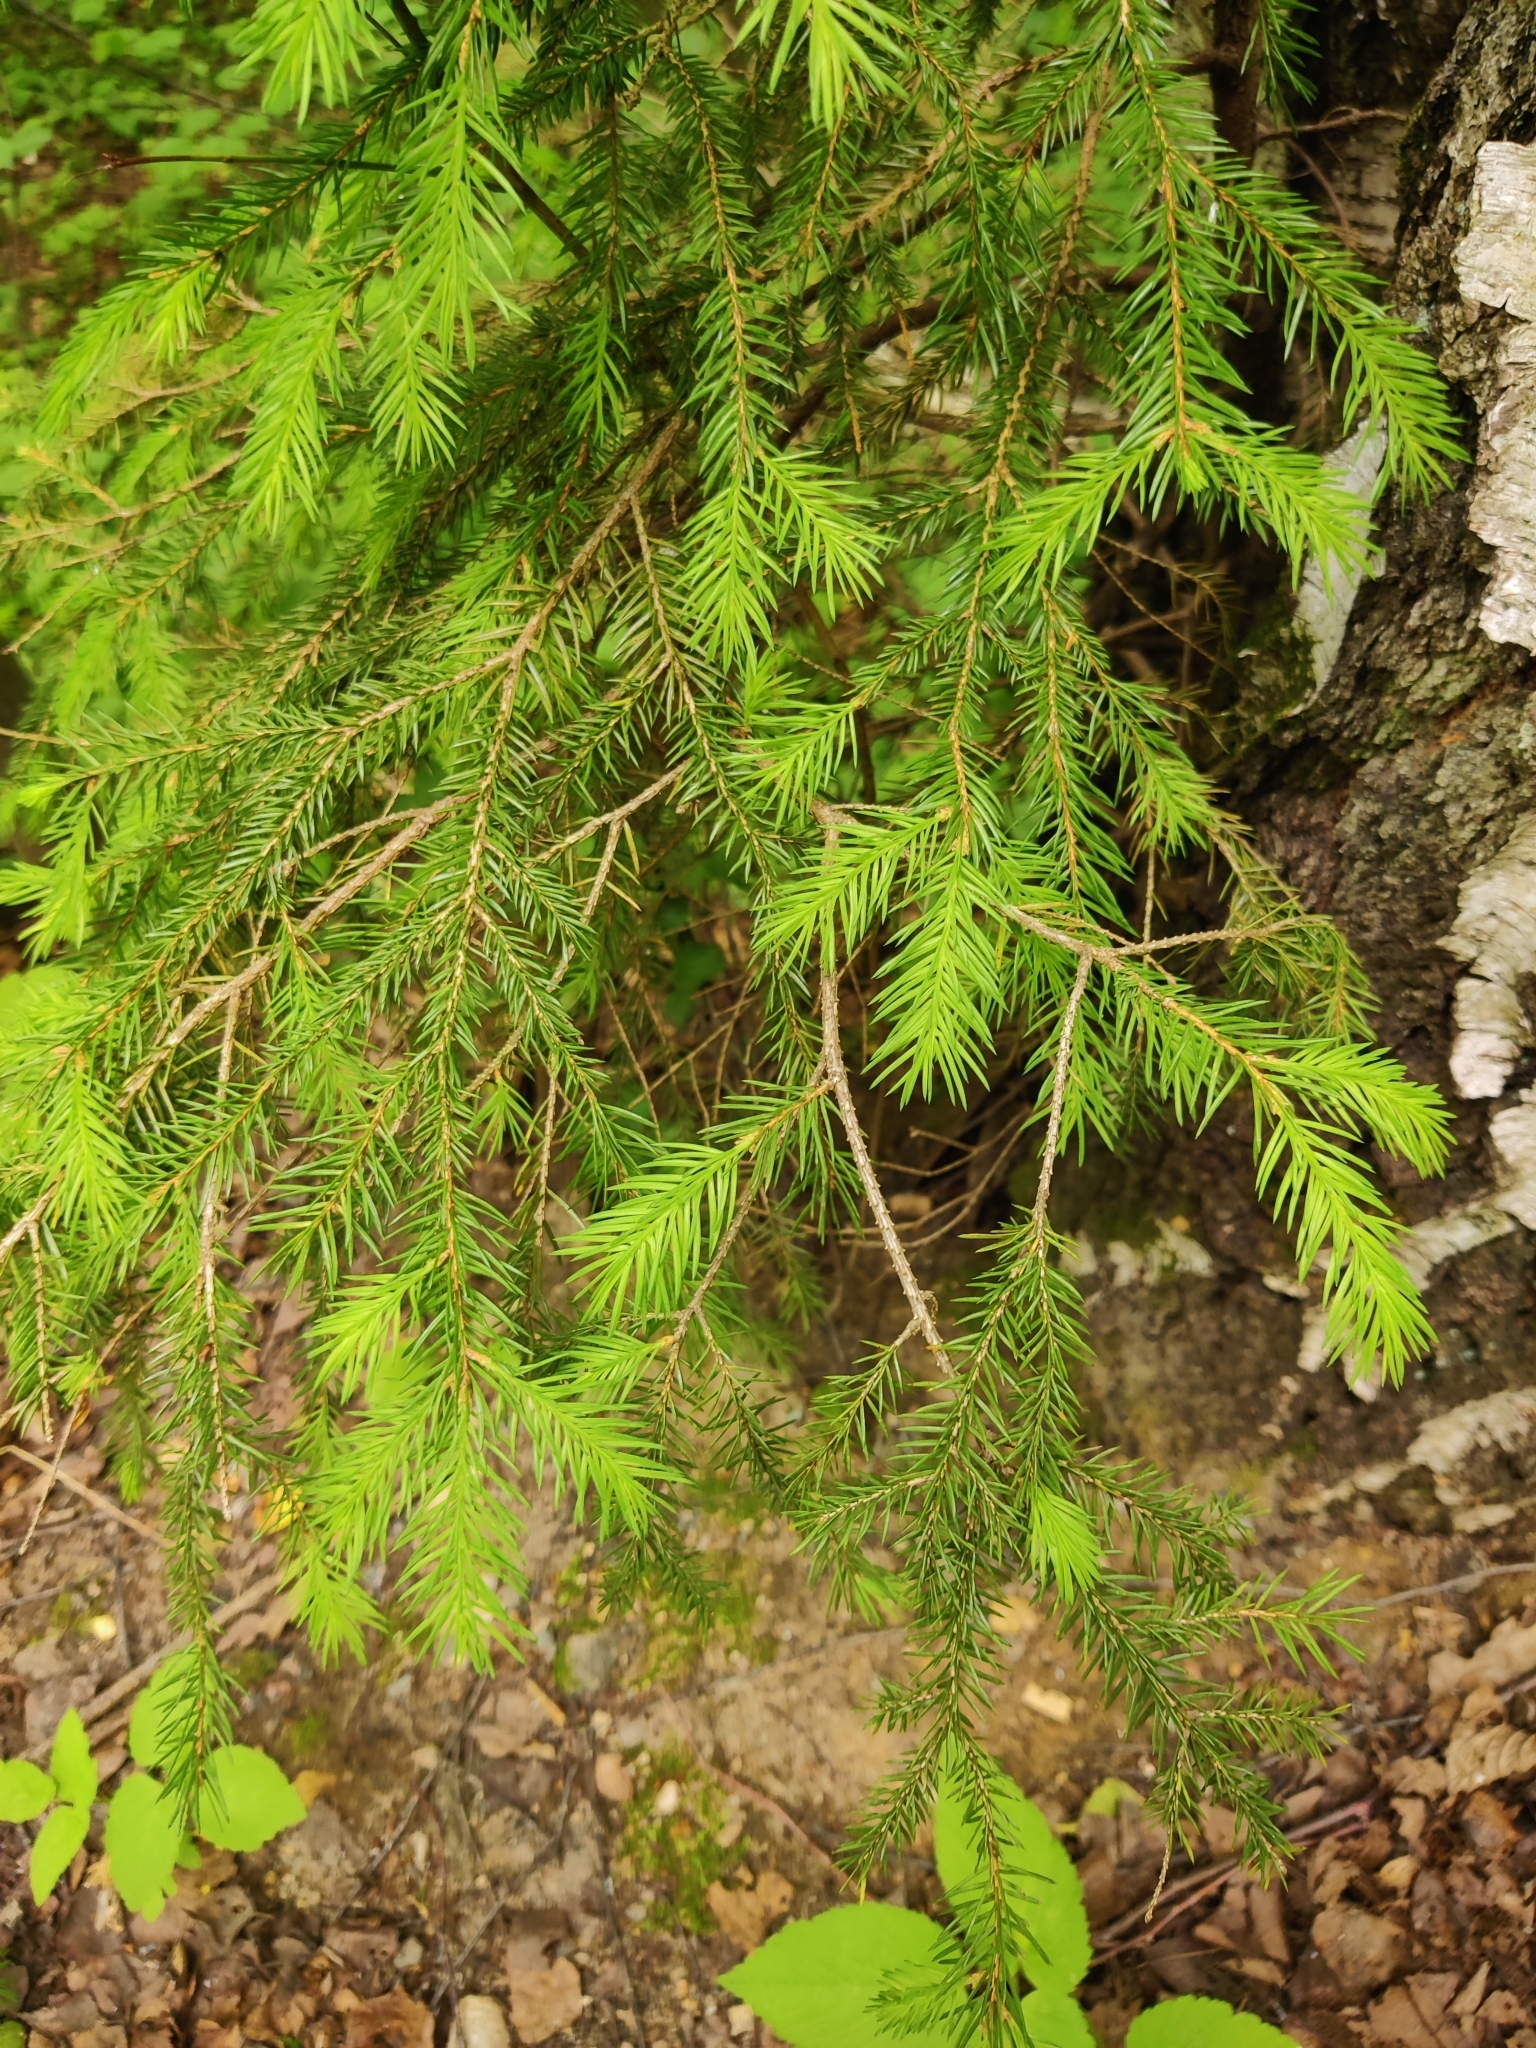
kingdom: Plantae
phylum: Tracheophyta
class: Pinopsida
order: Pinales
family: Pinaceae
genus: Picea
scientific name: Picea abies
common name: Norway spruce
